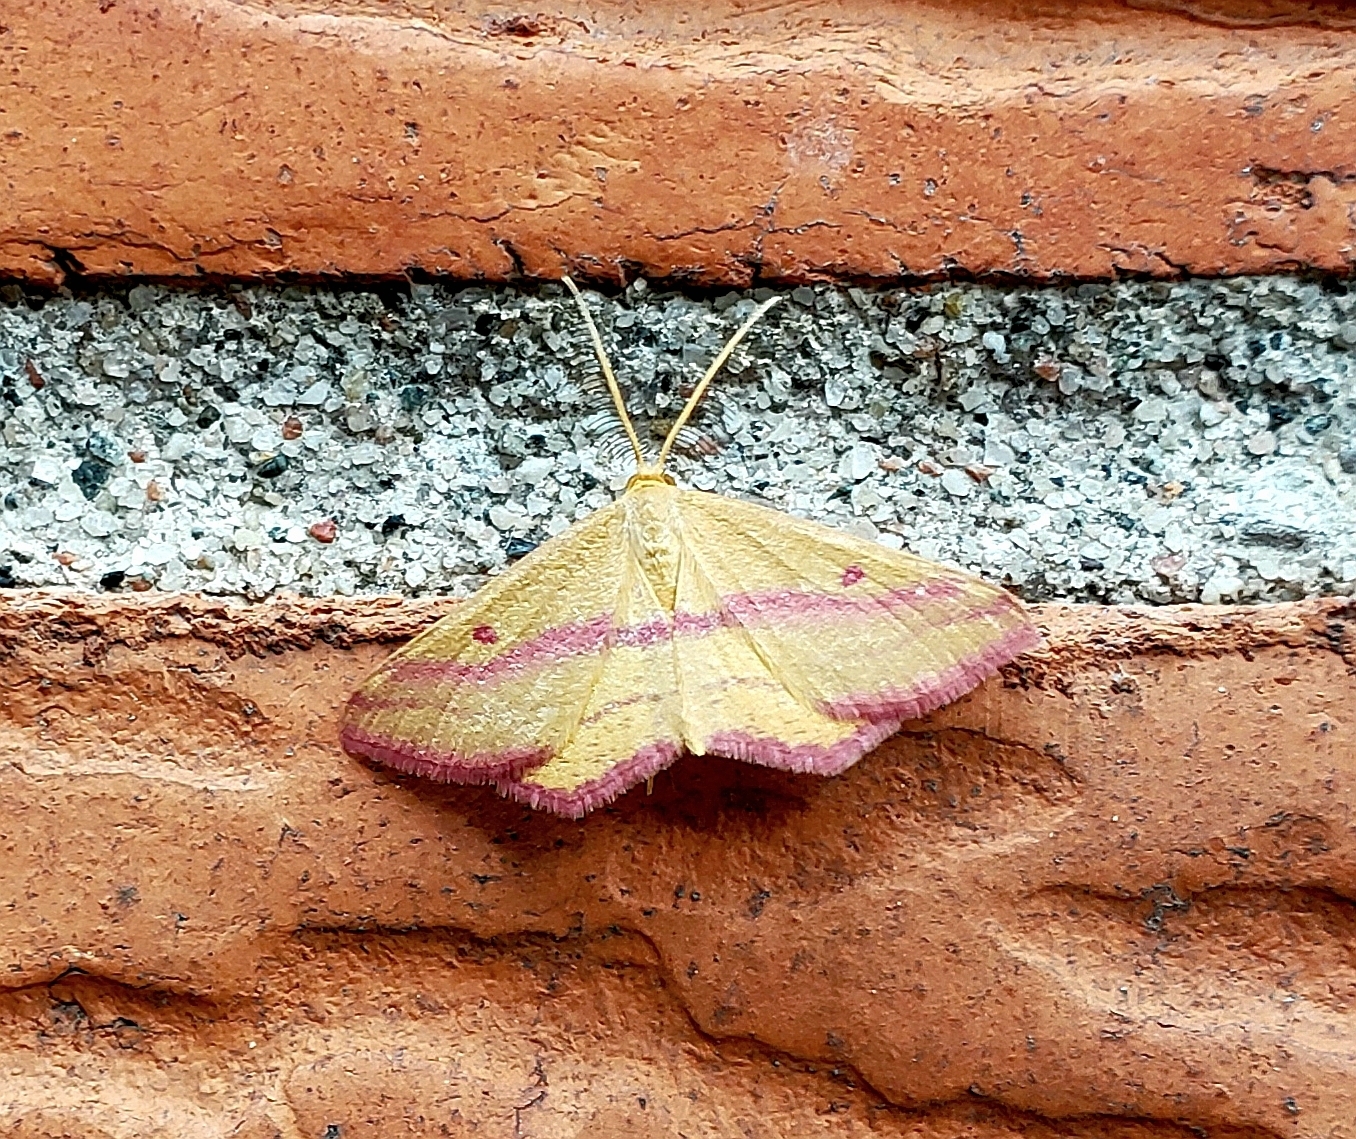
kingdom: Animalia
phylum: Arthropoda
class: Insecta
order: Lepidoptera
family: Geometridae
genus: Haematopis
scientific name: Haematopis grataria
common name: Chickweed geometer
